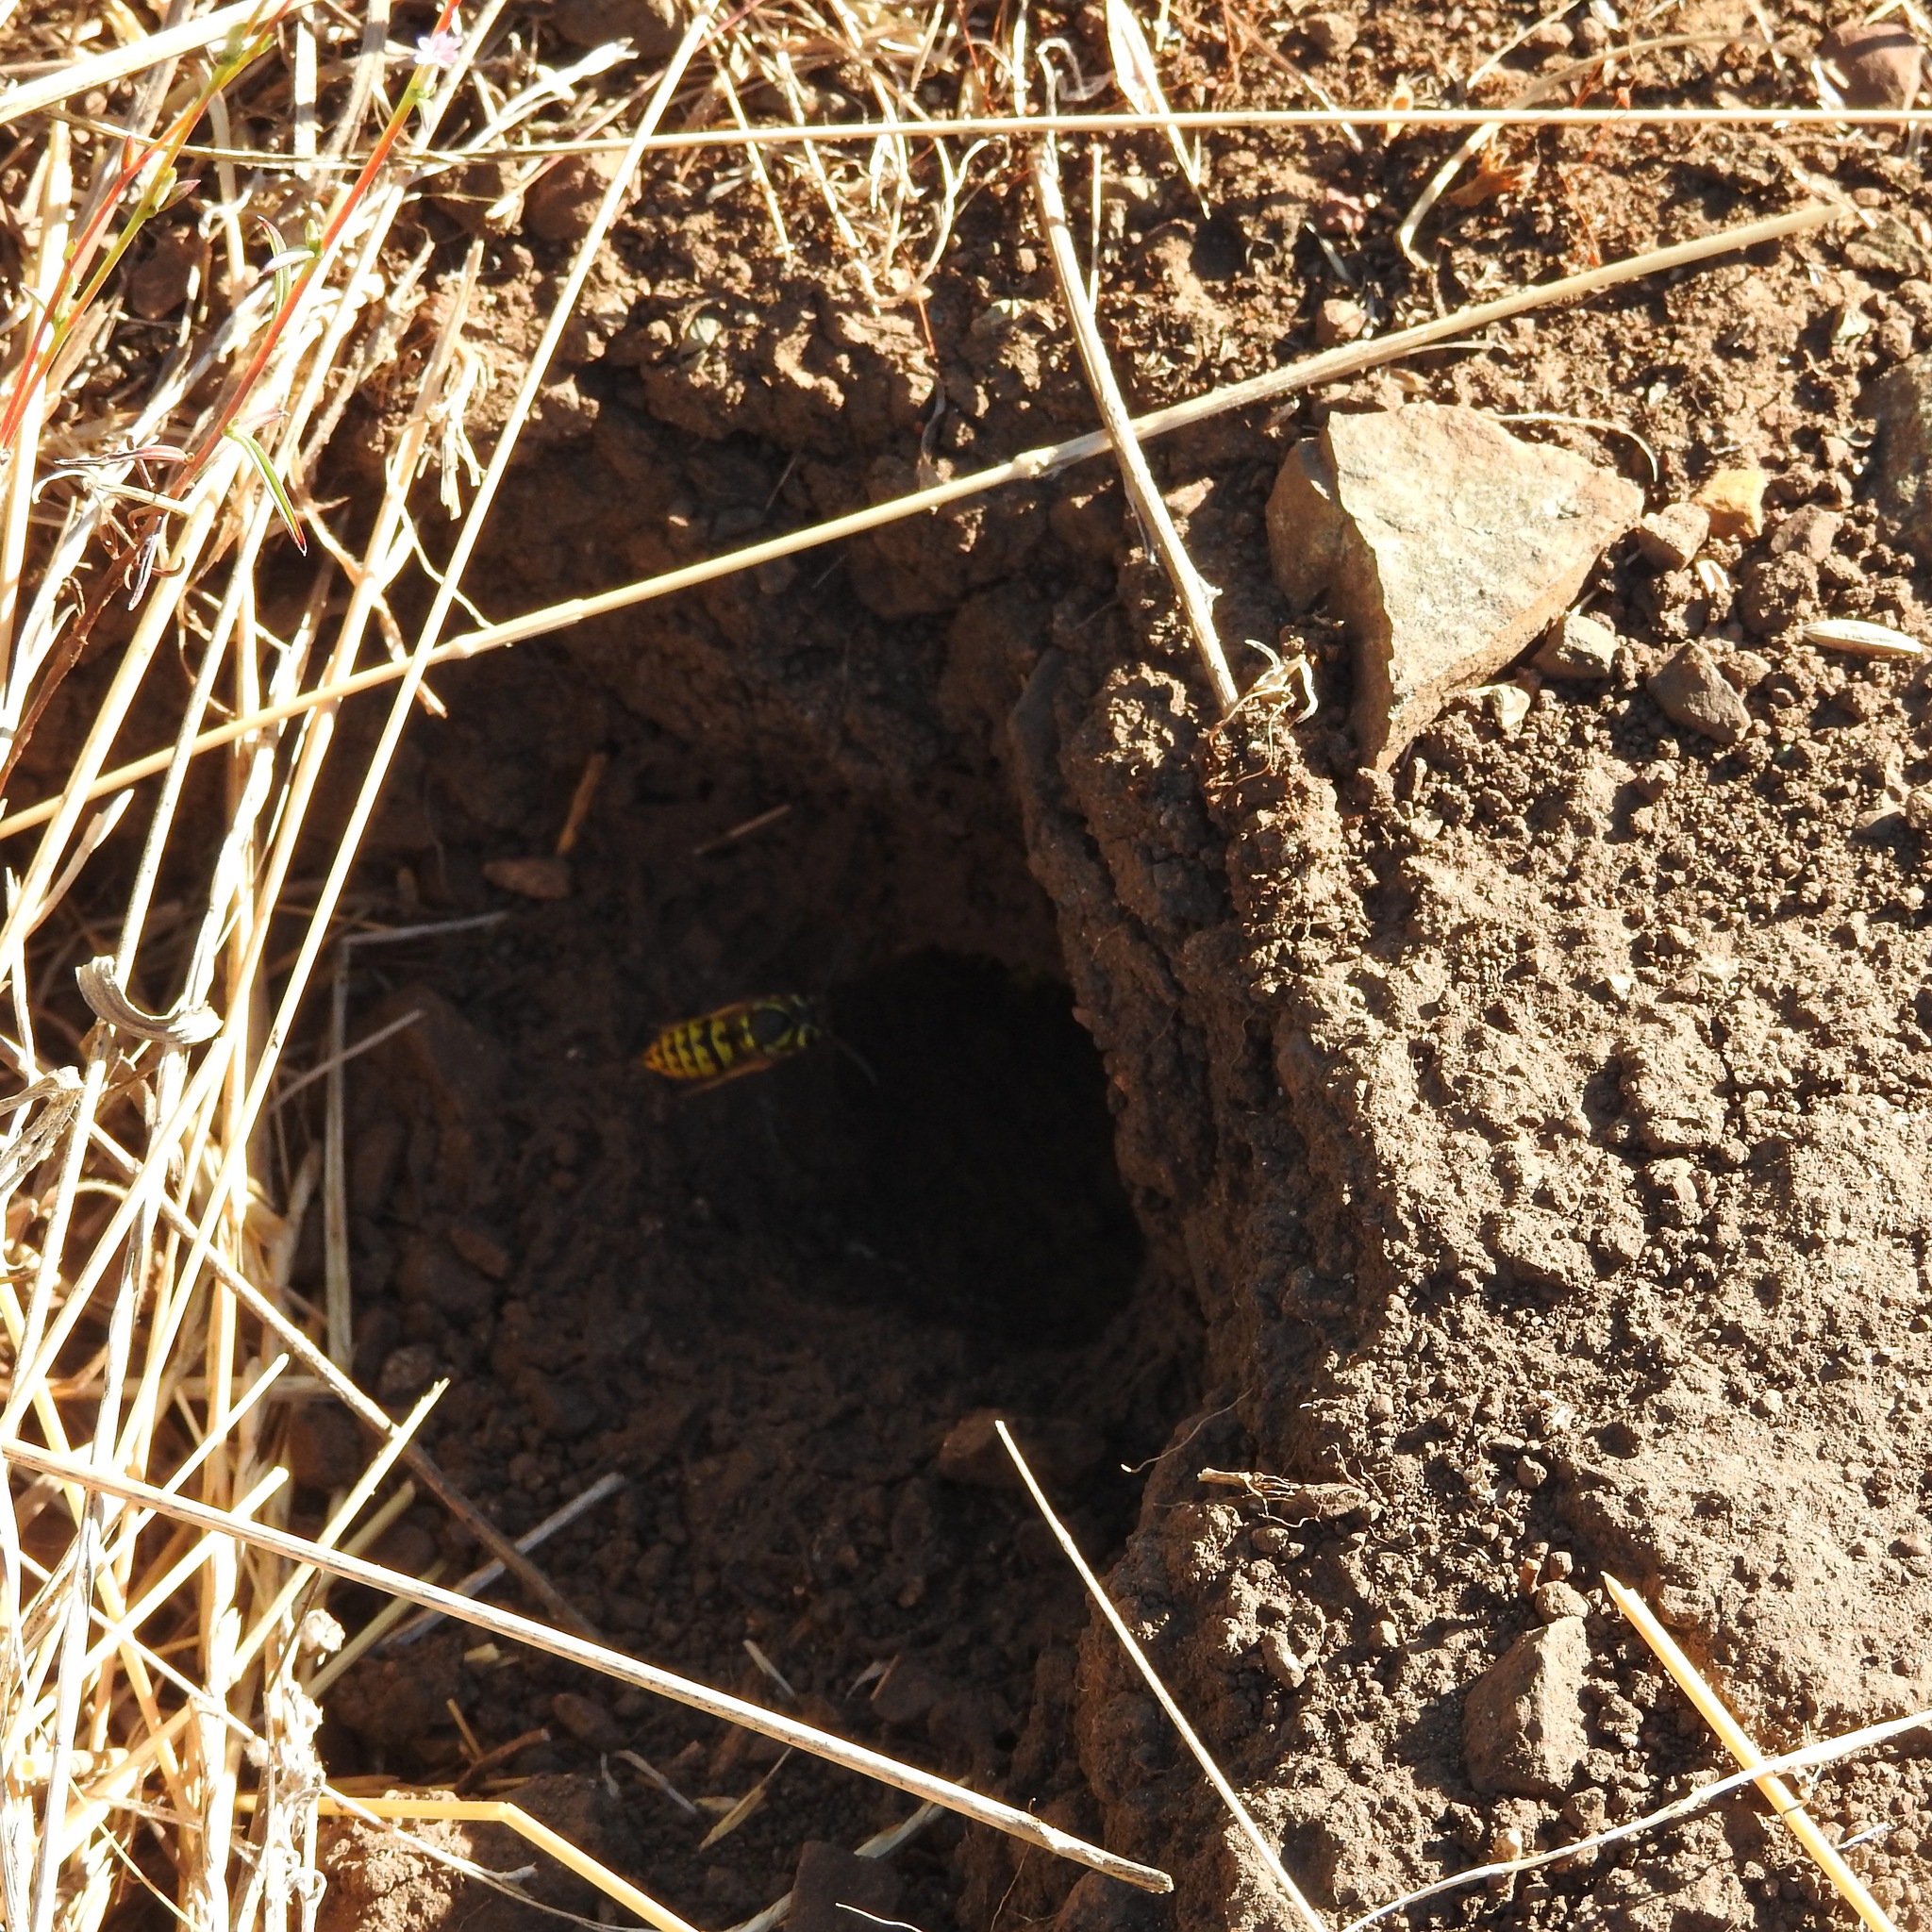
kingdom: Animalia
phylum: Arthropoda
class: Insecta
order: Hymenoptera
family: Vespidae
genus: Vespula
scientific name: Vespula pensylvanica
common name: Western yellowjacket
